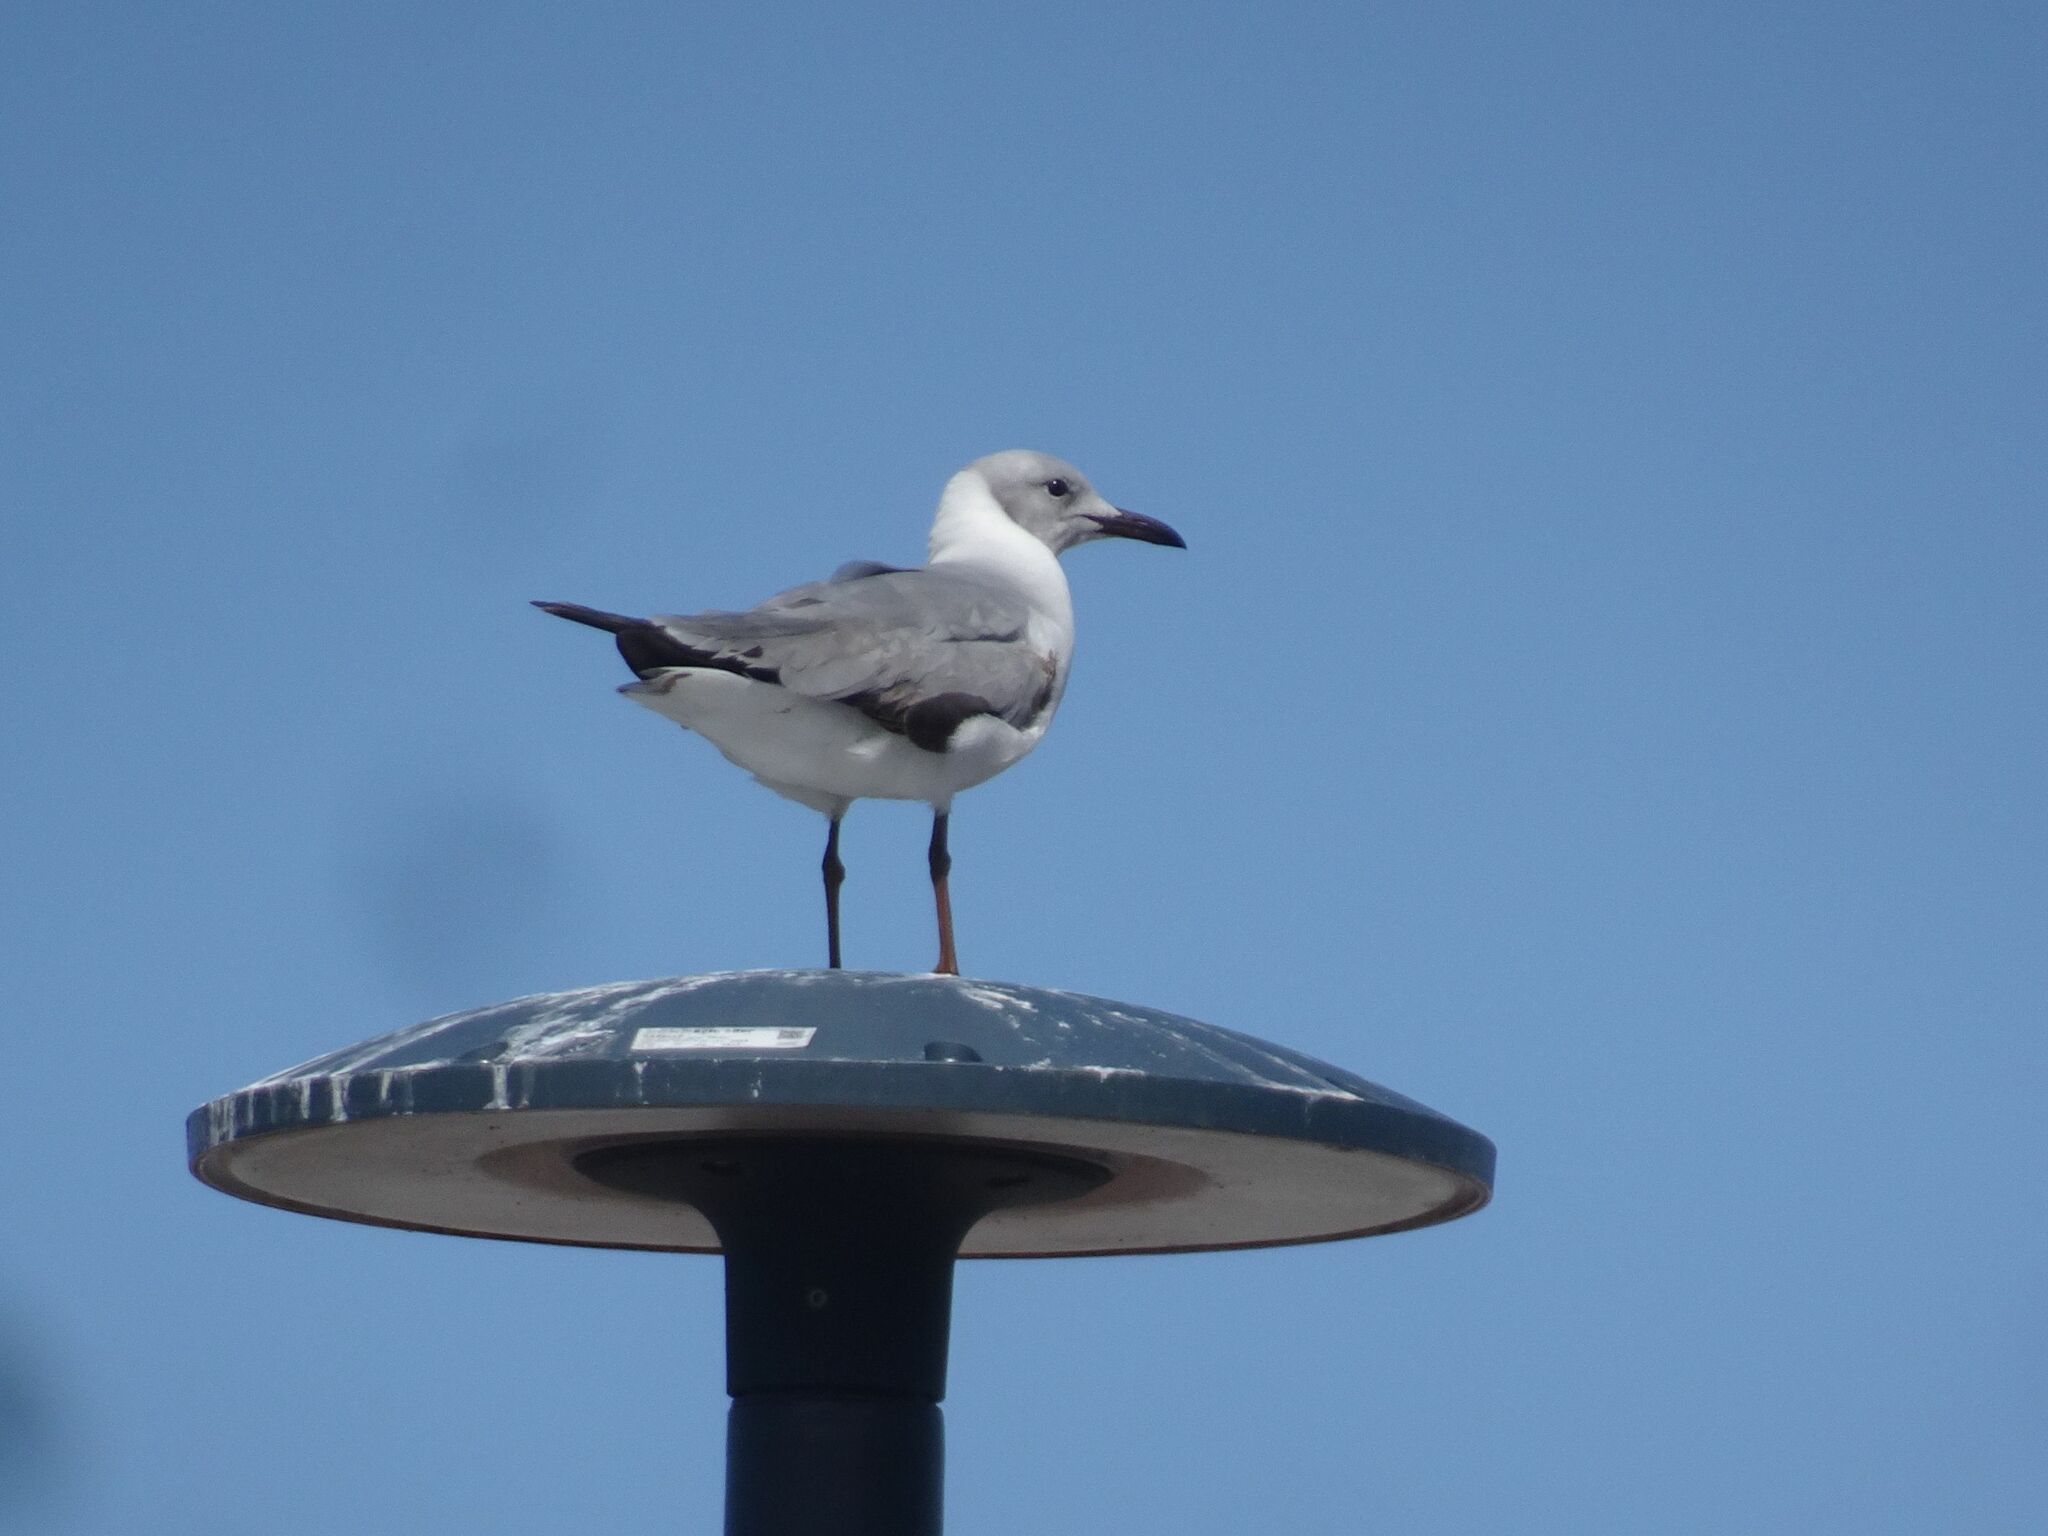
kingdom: Animalia
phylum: Chordata
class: Aves
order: Charadriiformes
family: Laridae
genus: Chroicocephalus
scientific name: Chroicocephalus cirrocephalus
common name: Grey-headed gull
